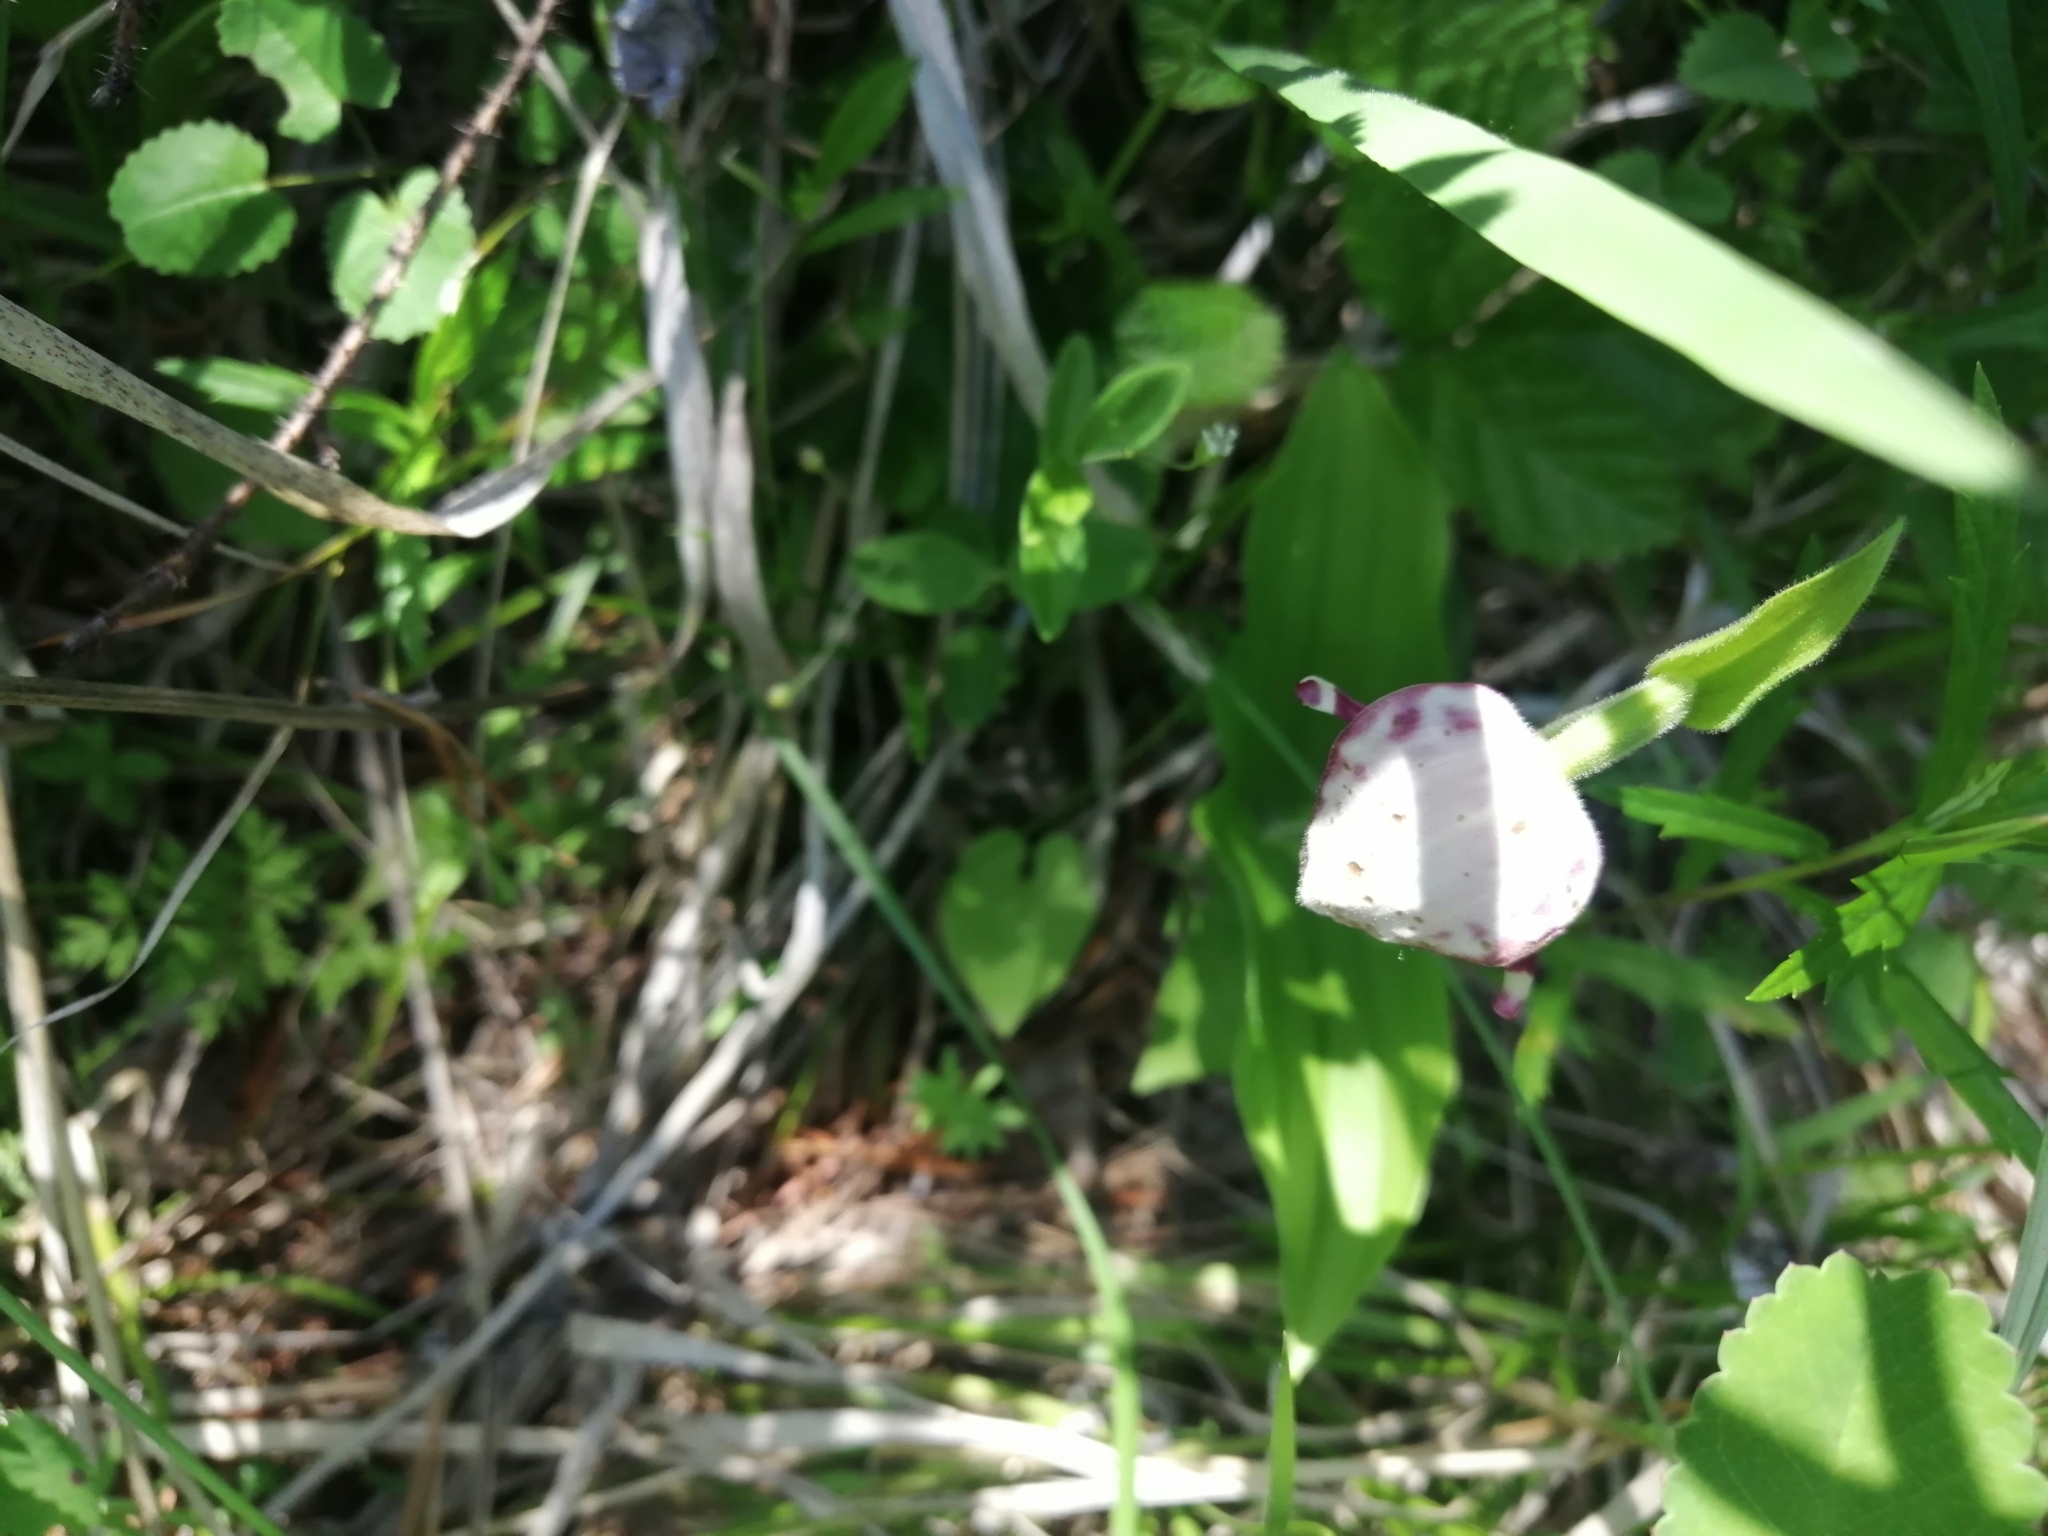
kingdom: Plantae
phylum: Tracheophyta
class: Liliopsida
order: Asparagales
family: Orchidaceae
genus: Cypripedium
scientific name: Cypripedium guttatum
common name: Pink lady slipper
